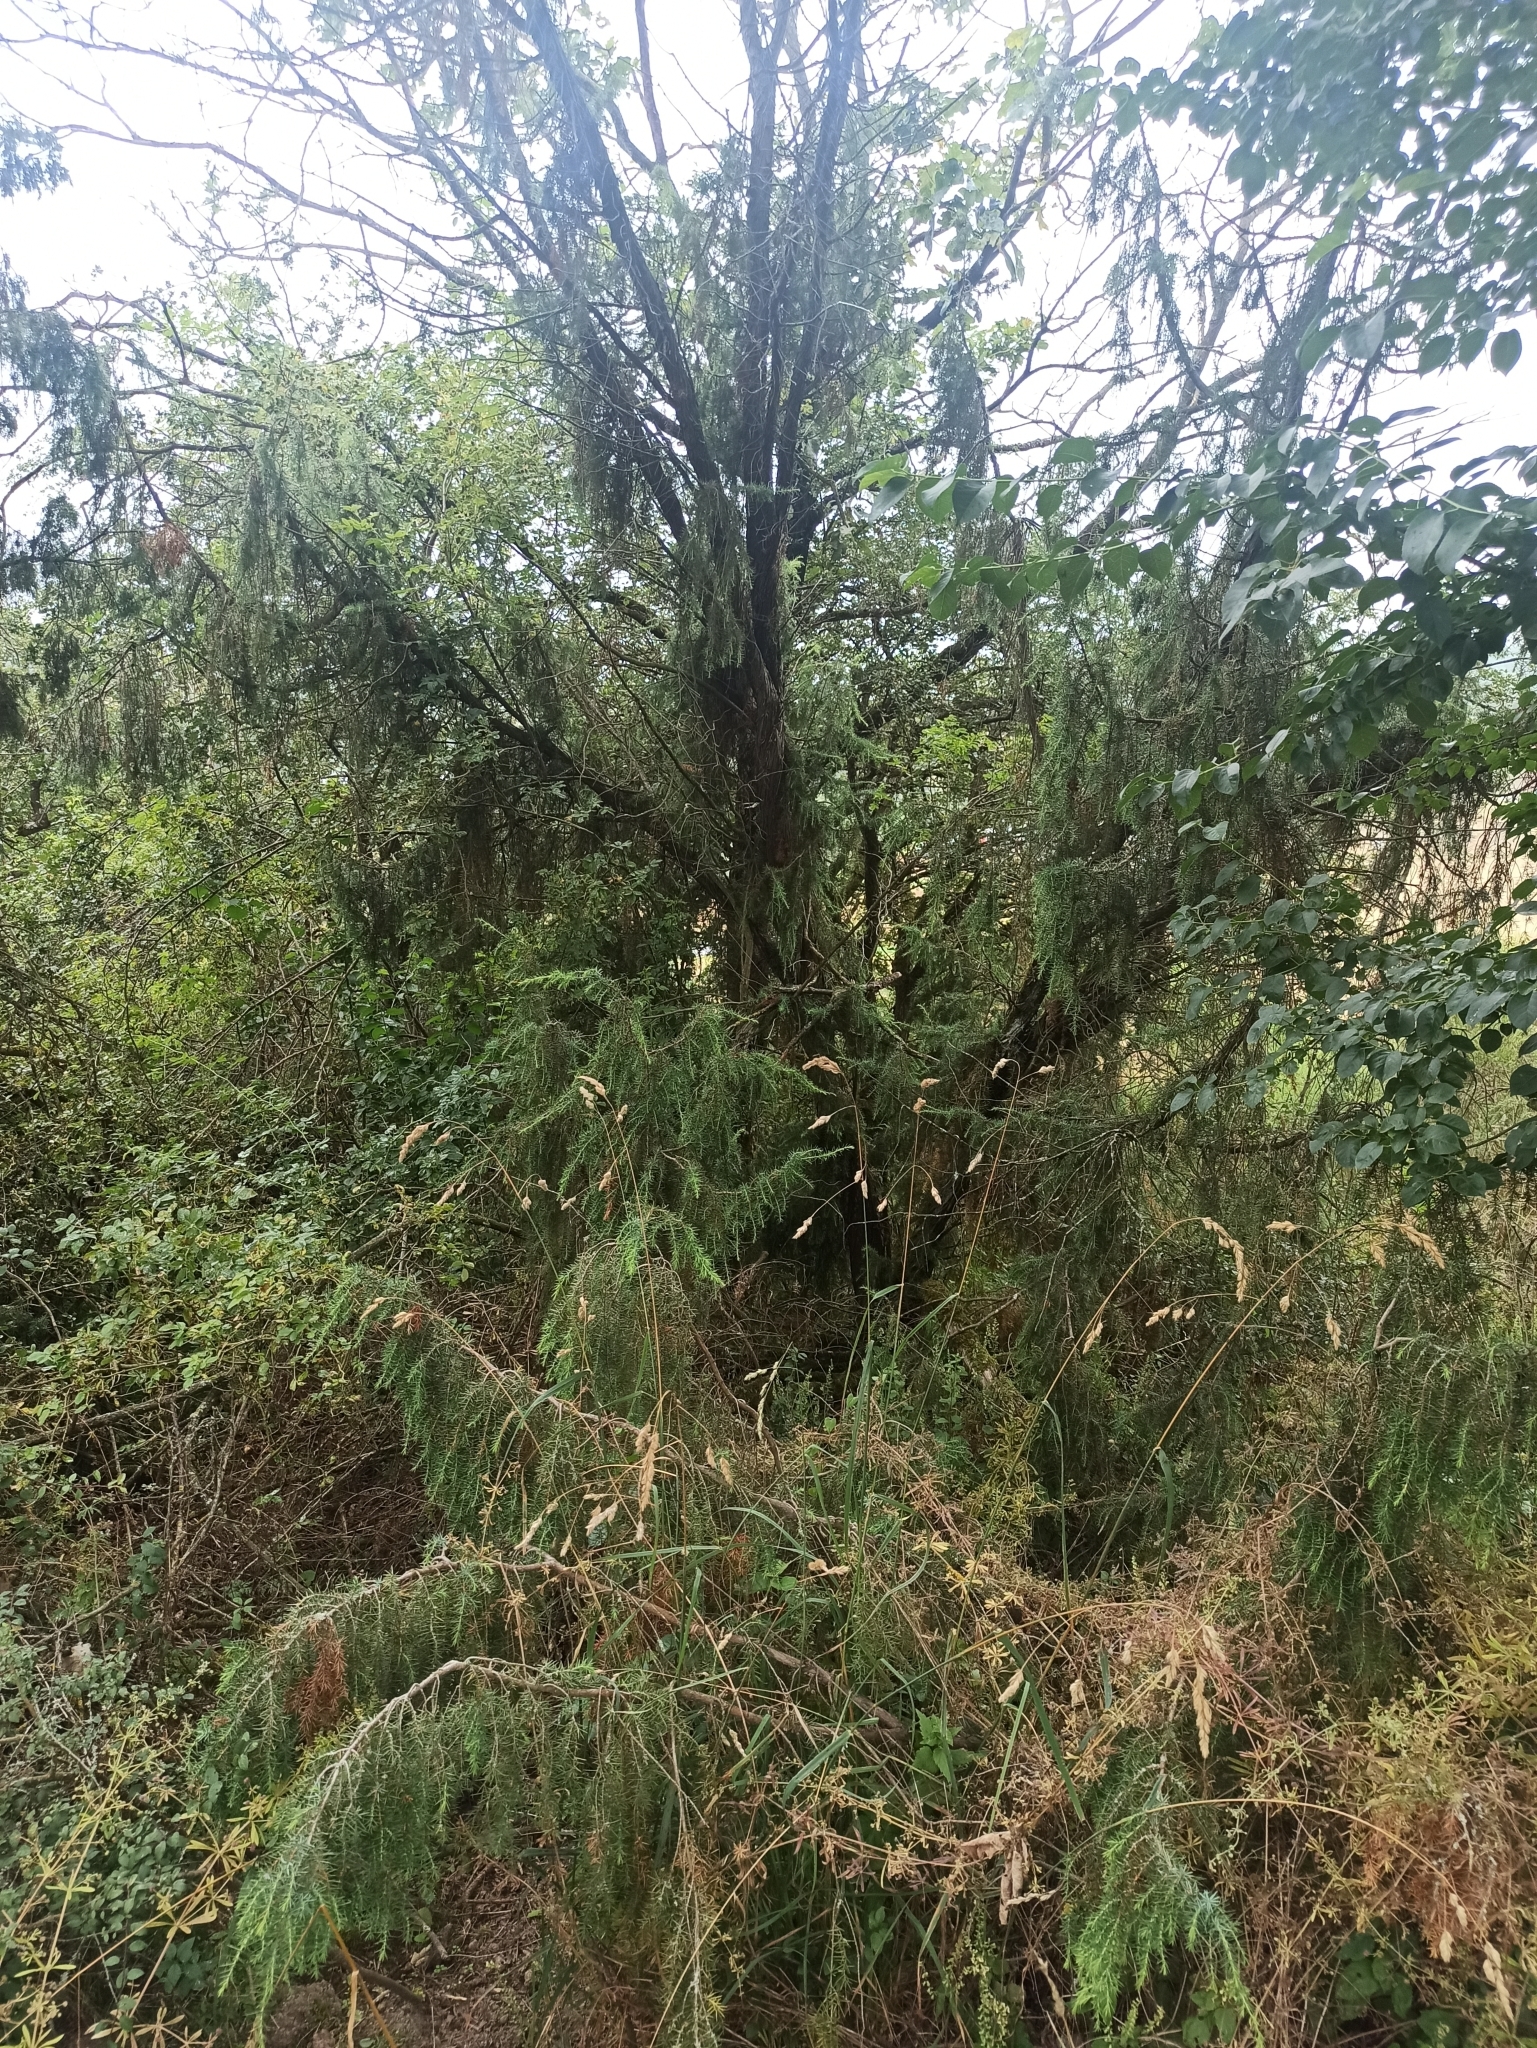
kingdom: Plantae
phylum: Tracheophyta
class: Pinopsida
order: Pinales
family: Cupressaceae
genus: Juniperus
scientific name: Juniperus communis
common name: Common juniper
